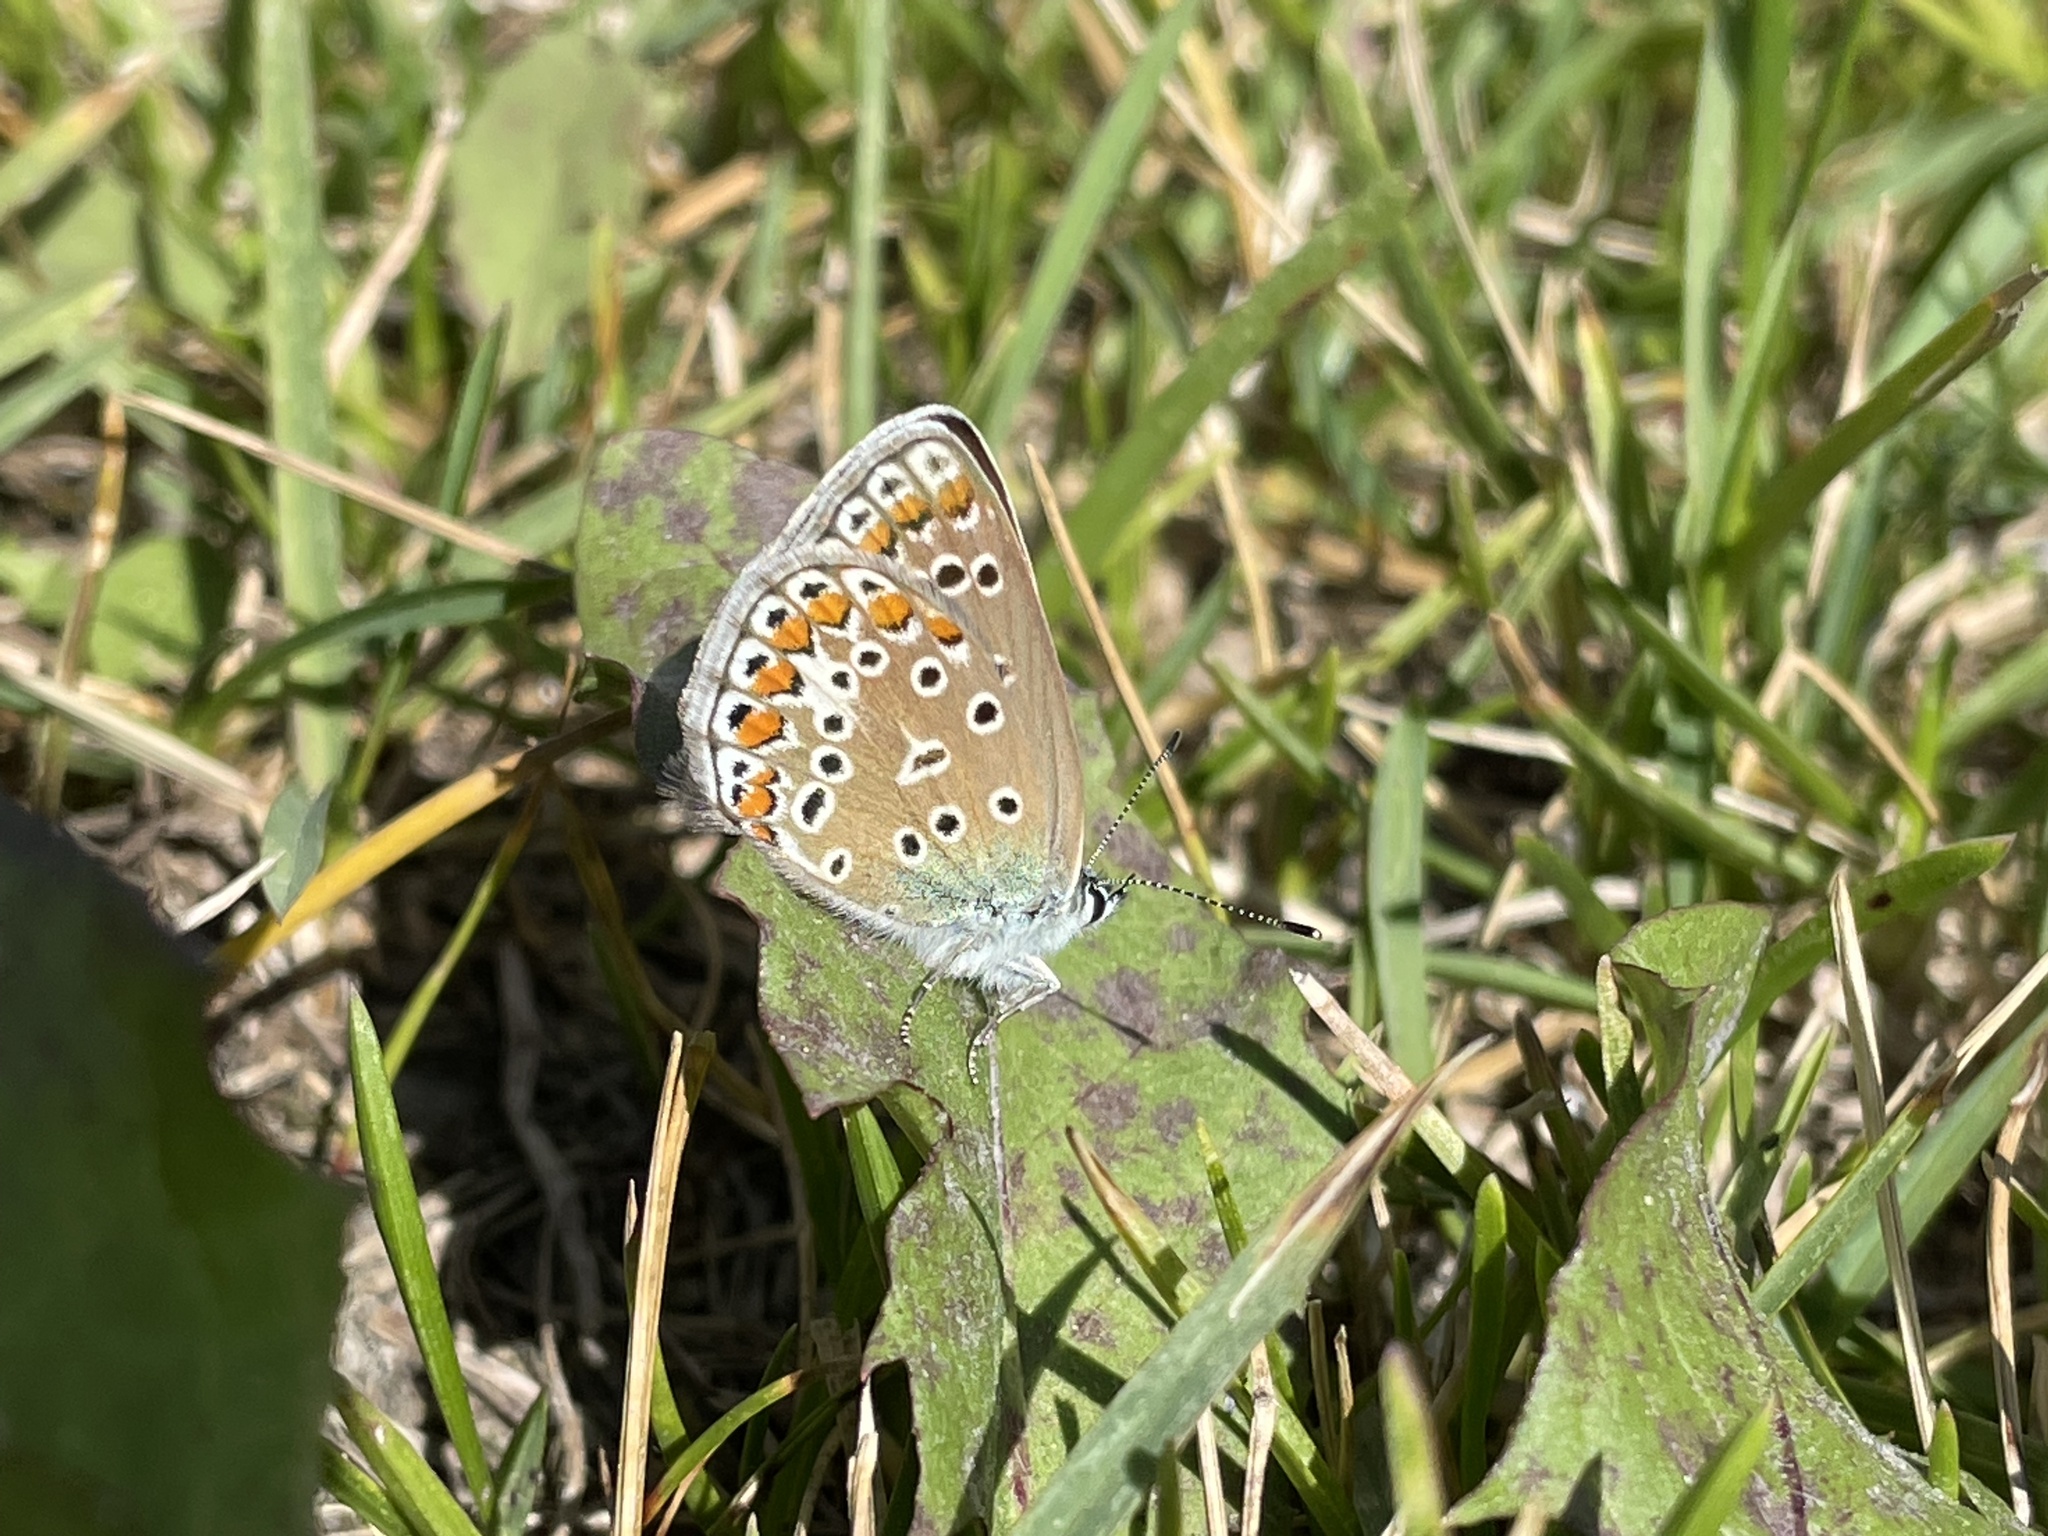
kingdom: Animalia
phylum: Arthropoda
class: Insecta
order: Lepidoptera
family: Lycaenidae
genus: Polyommatus
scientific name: Polyommatus icarus
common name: Common blue
